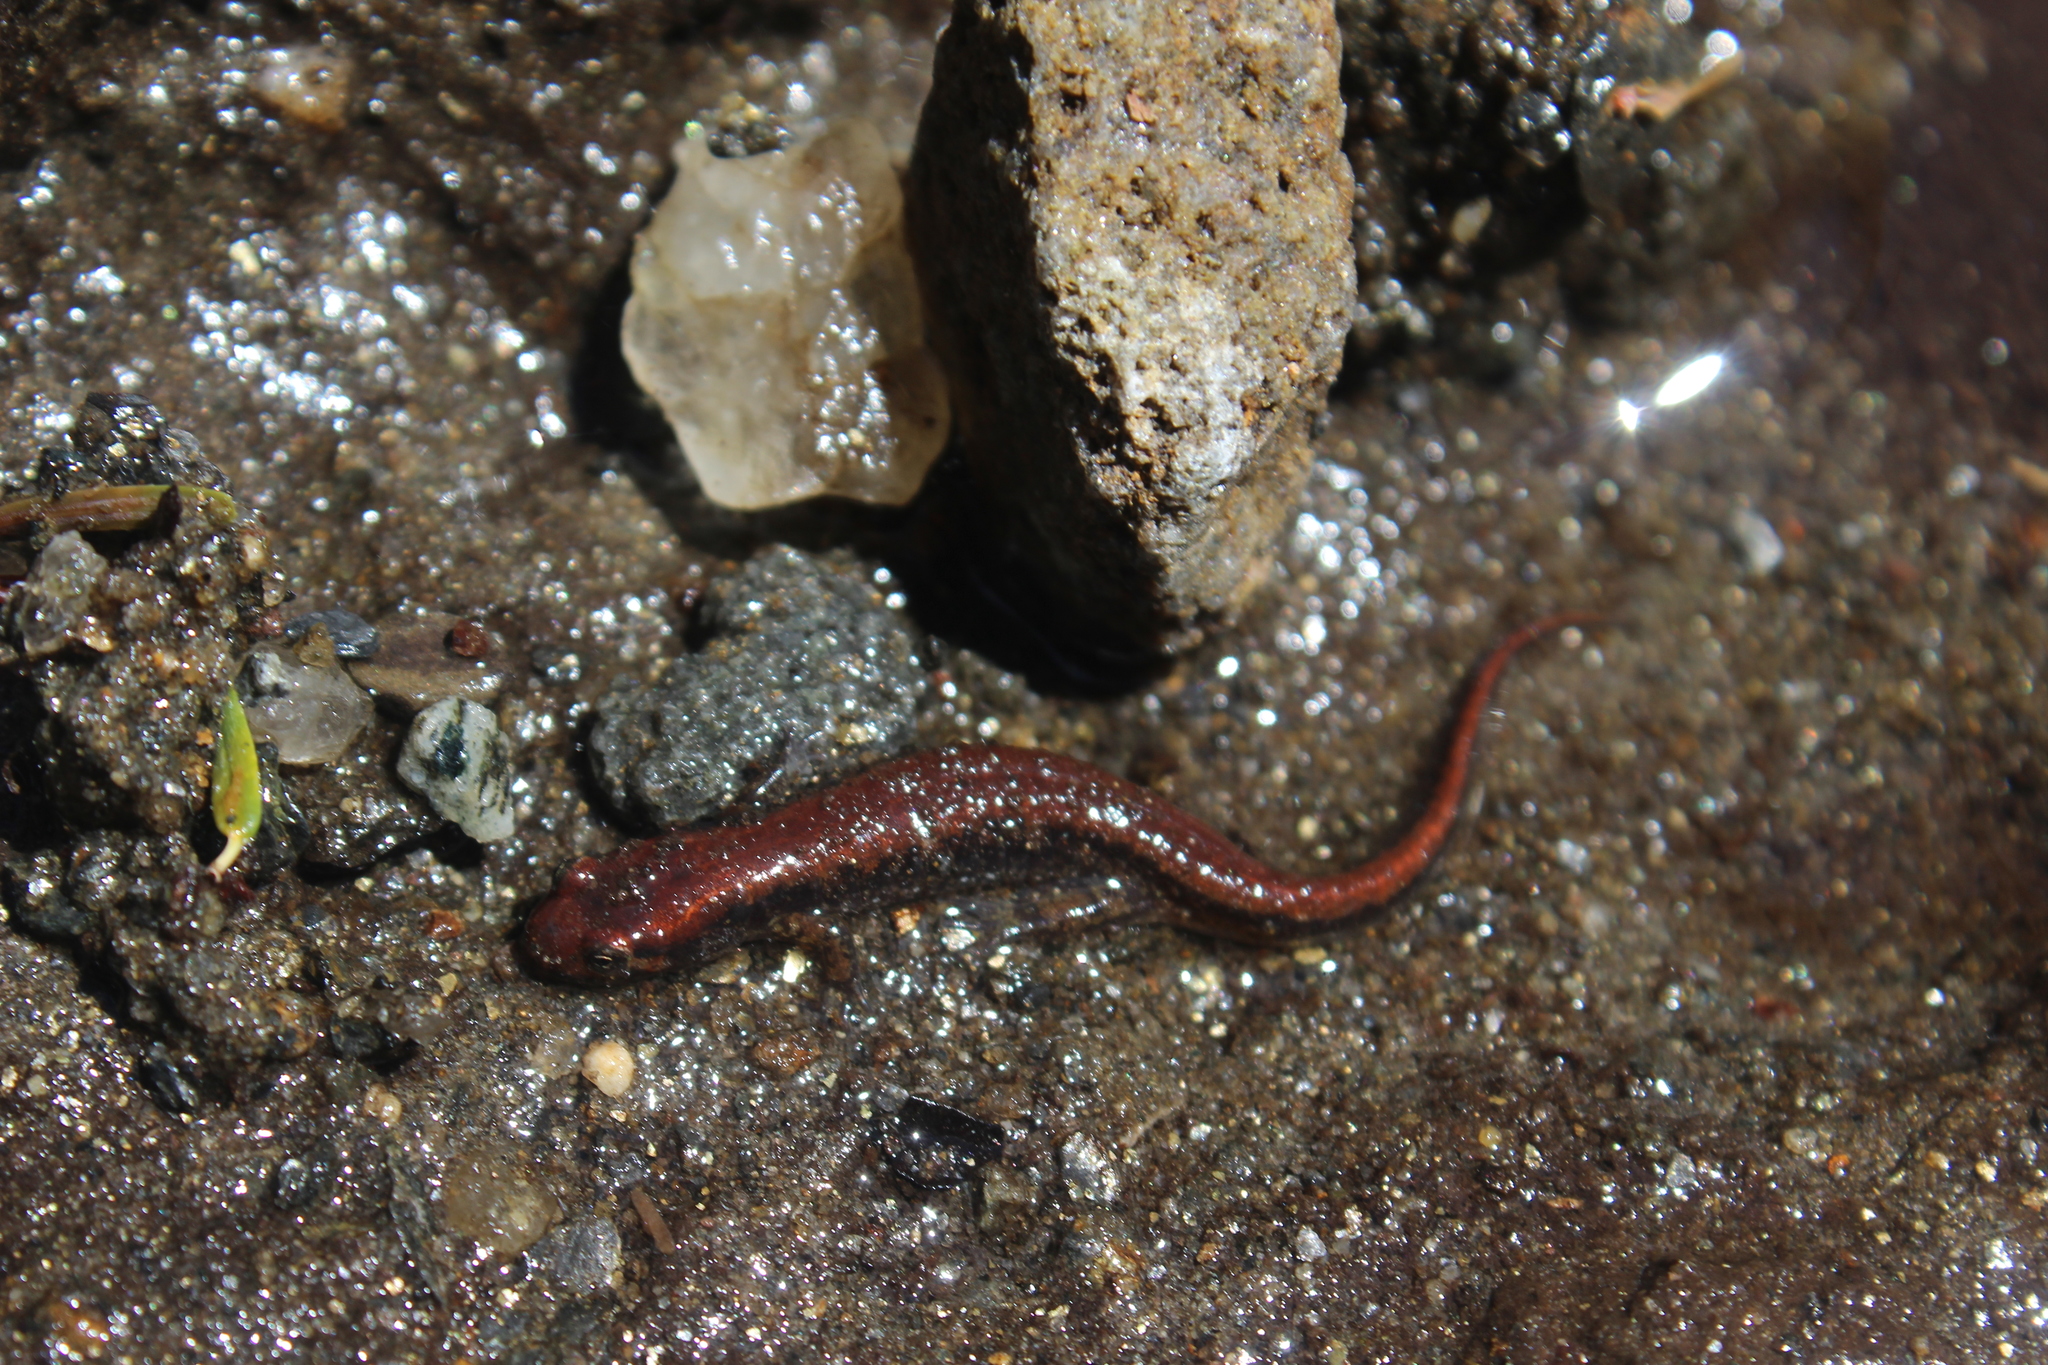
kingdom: Animalia
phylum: Chordata
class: Amphibia
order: Caudata
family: Plethodontidae
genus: Desmognathus
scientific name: Desmognathus fuscus
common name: Northern dusky salamander
